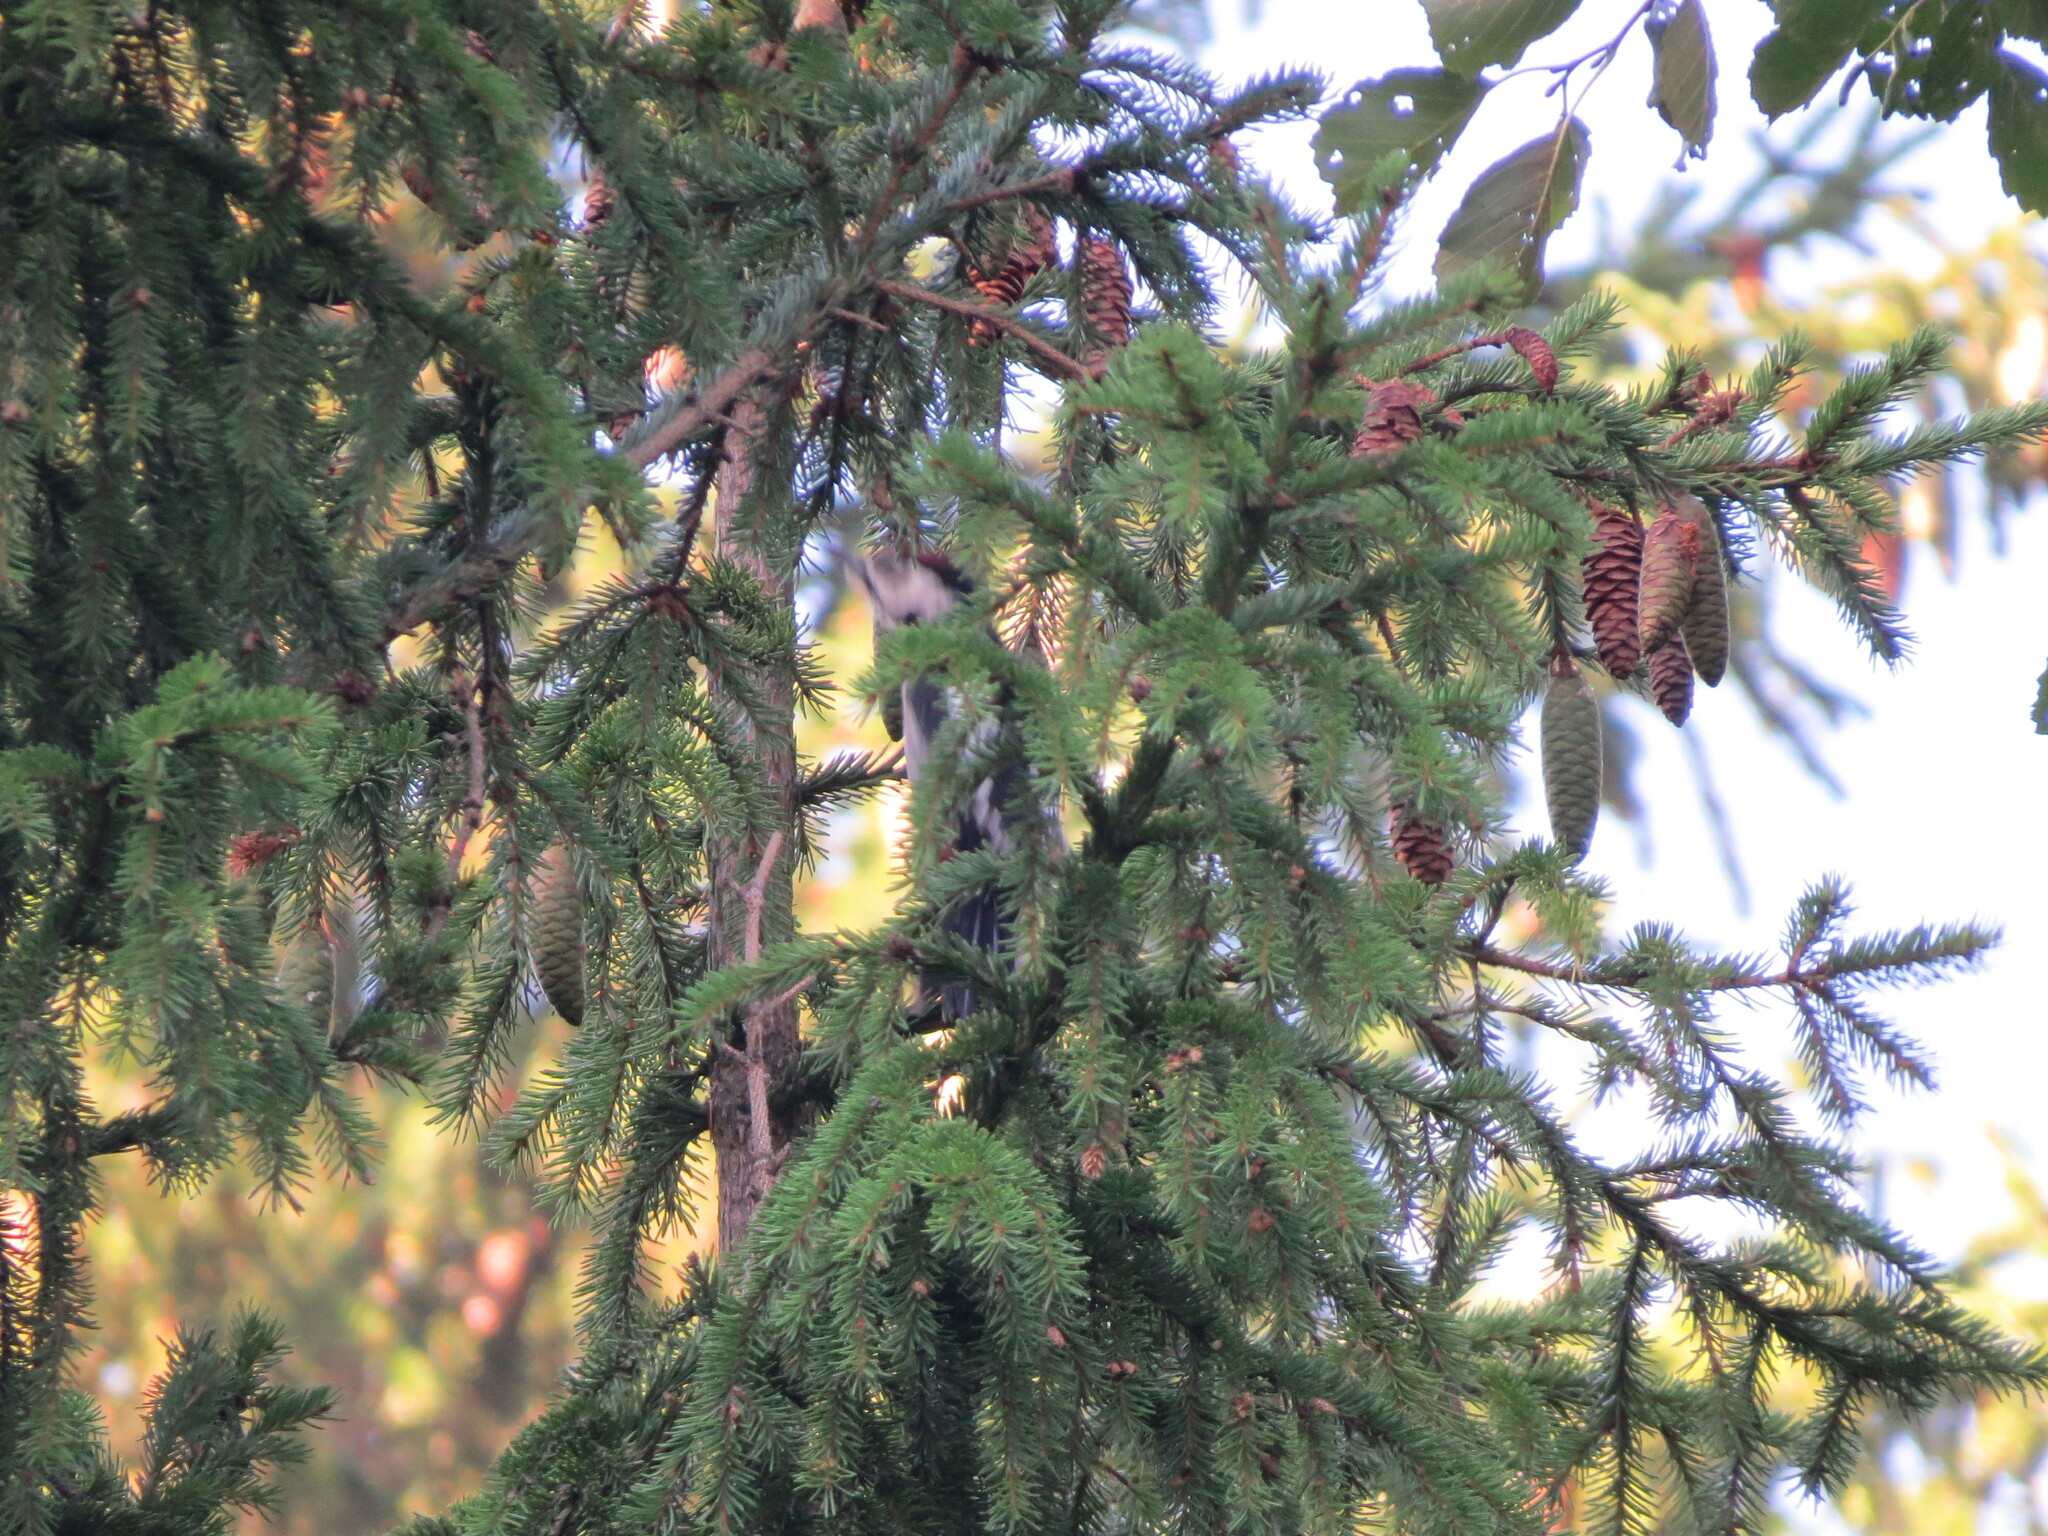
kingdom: Animalia
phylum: Chordata
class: Aves
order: Piciformes
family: Picidae
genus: Dendrocopos
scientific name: Dendrocopos major
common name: Great spotted woodpecker
